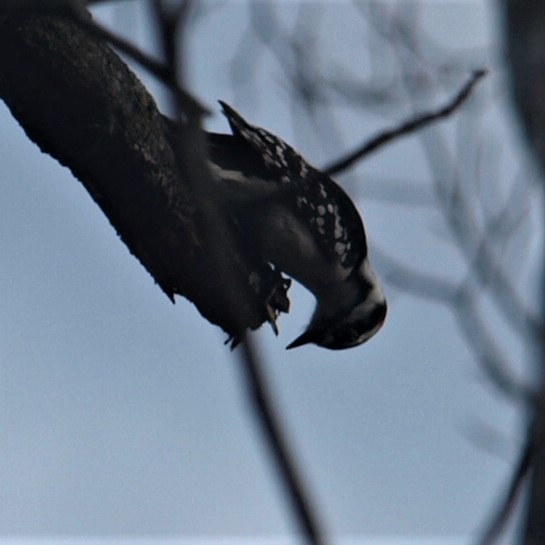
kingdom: Animalia
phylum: Chordata
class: Aves
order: Piciformes
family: Picidae
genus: Dryobates
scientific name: Dryobates pubescens
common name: Downy woodpecker
